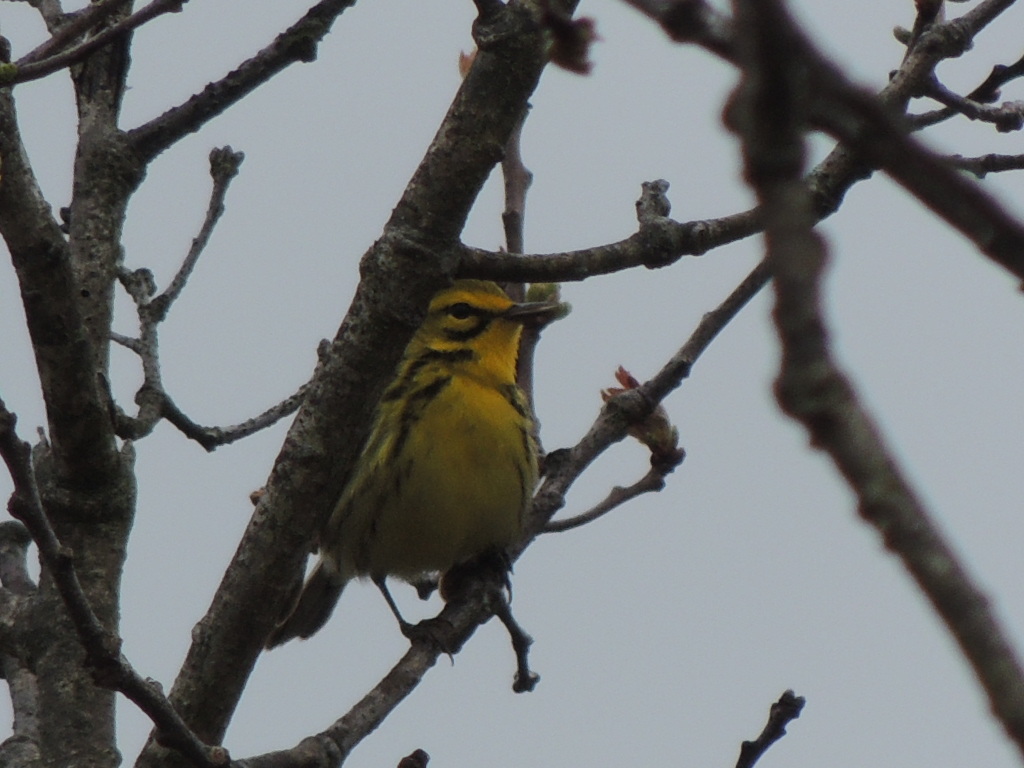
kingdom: Animalia
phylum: Chordata
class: Aves
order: Passeriformes
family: Parulidae
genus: Setophaga
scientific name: Setophaga discolor
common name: Prairie warbler
